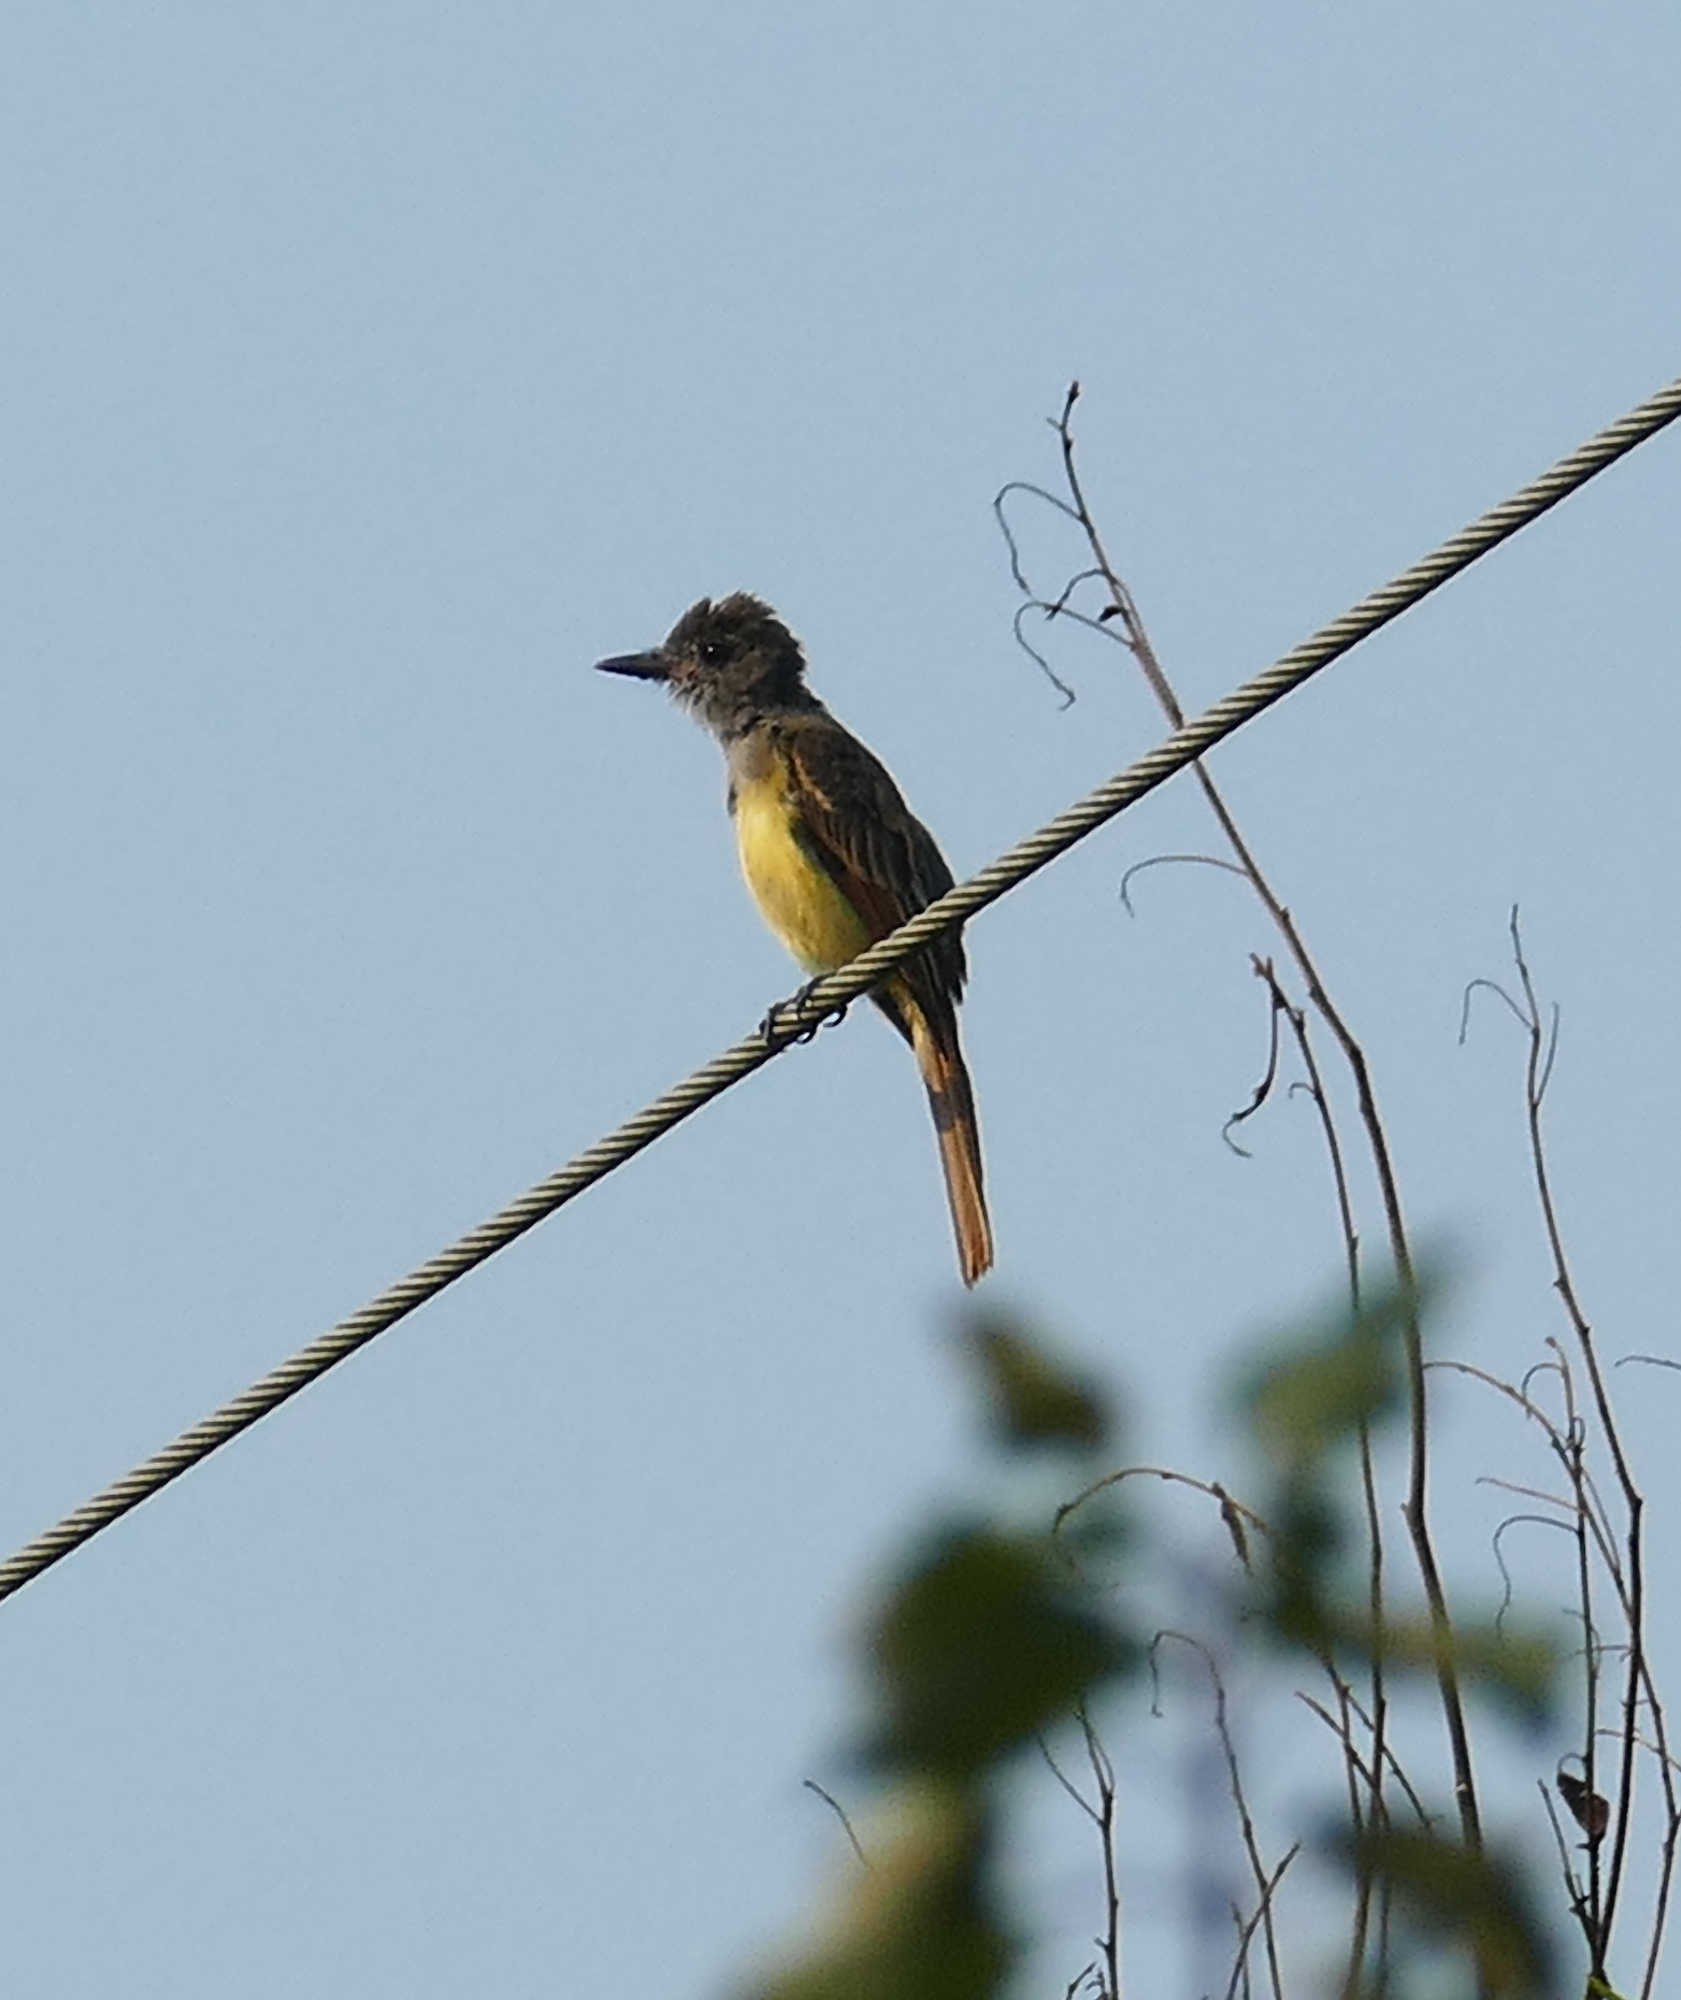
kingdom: Animalia
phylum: Chordata
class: Aves
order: Passeriformes
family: Tyrannidae
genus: Myiarchus
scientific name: Myiarchus crinitus
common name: Great crested flycatcher
